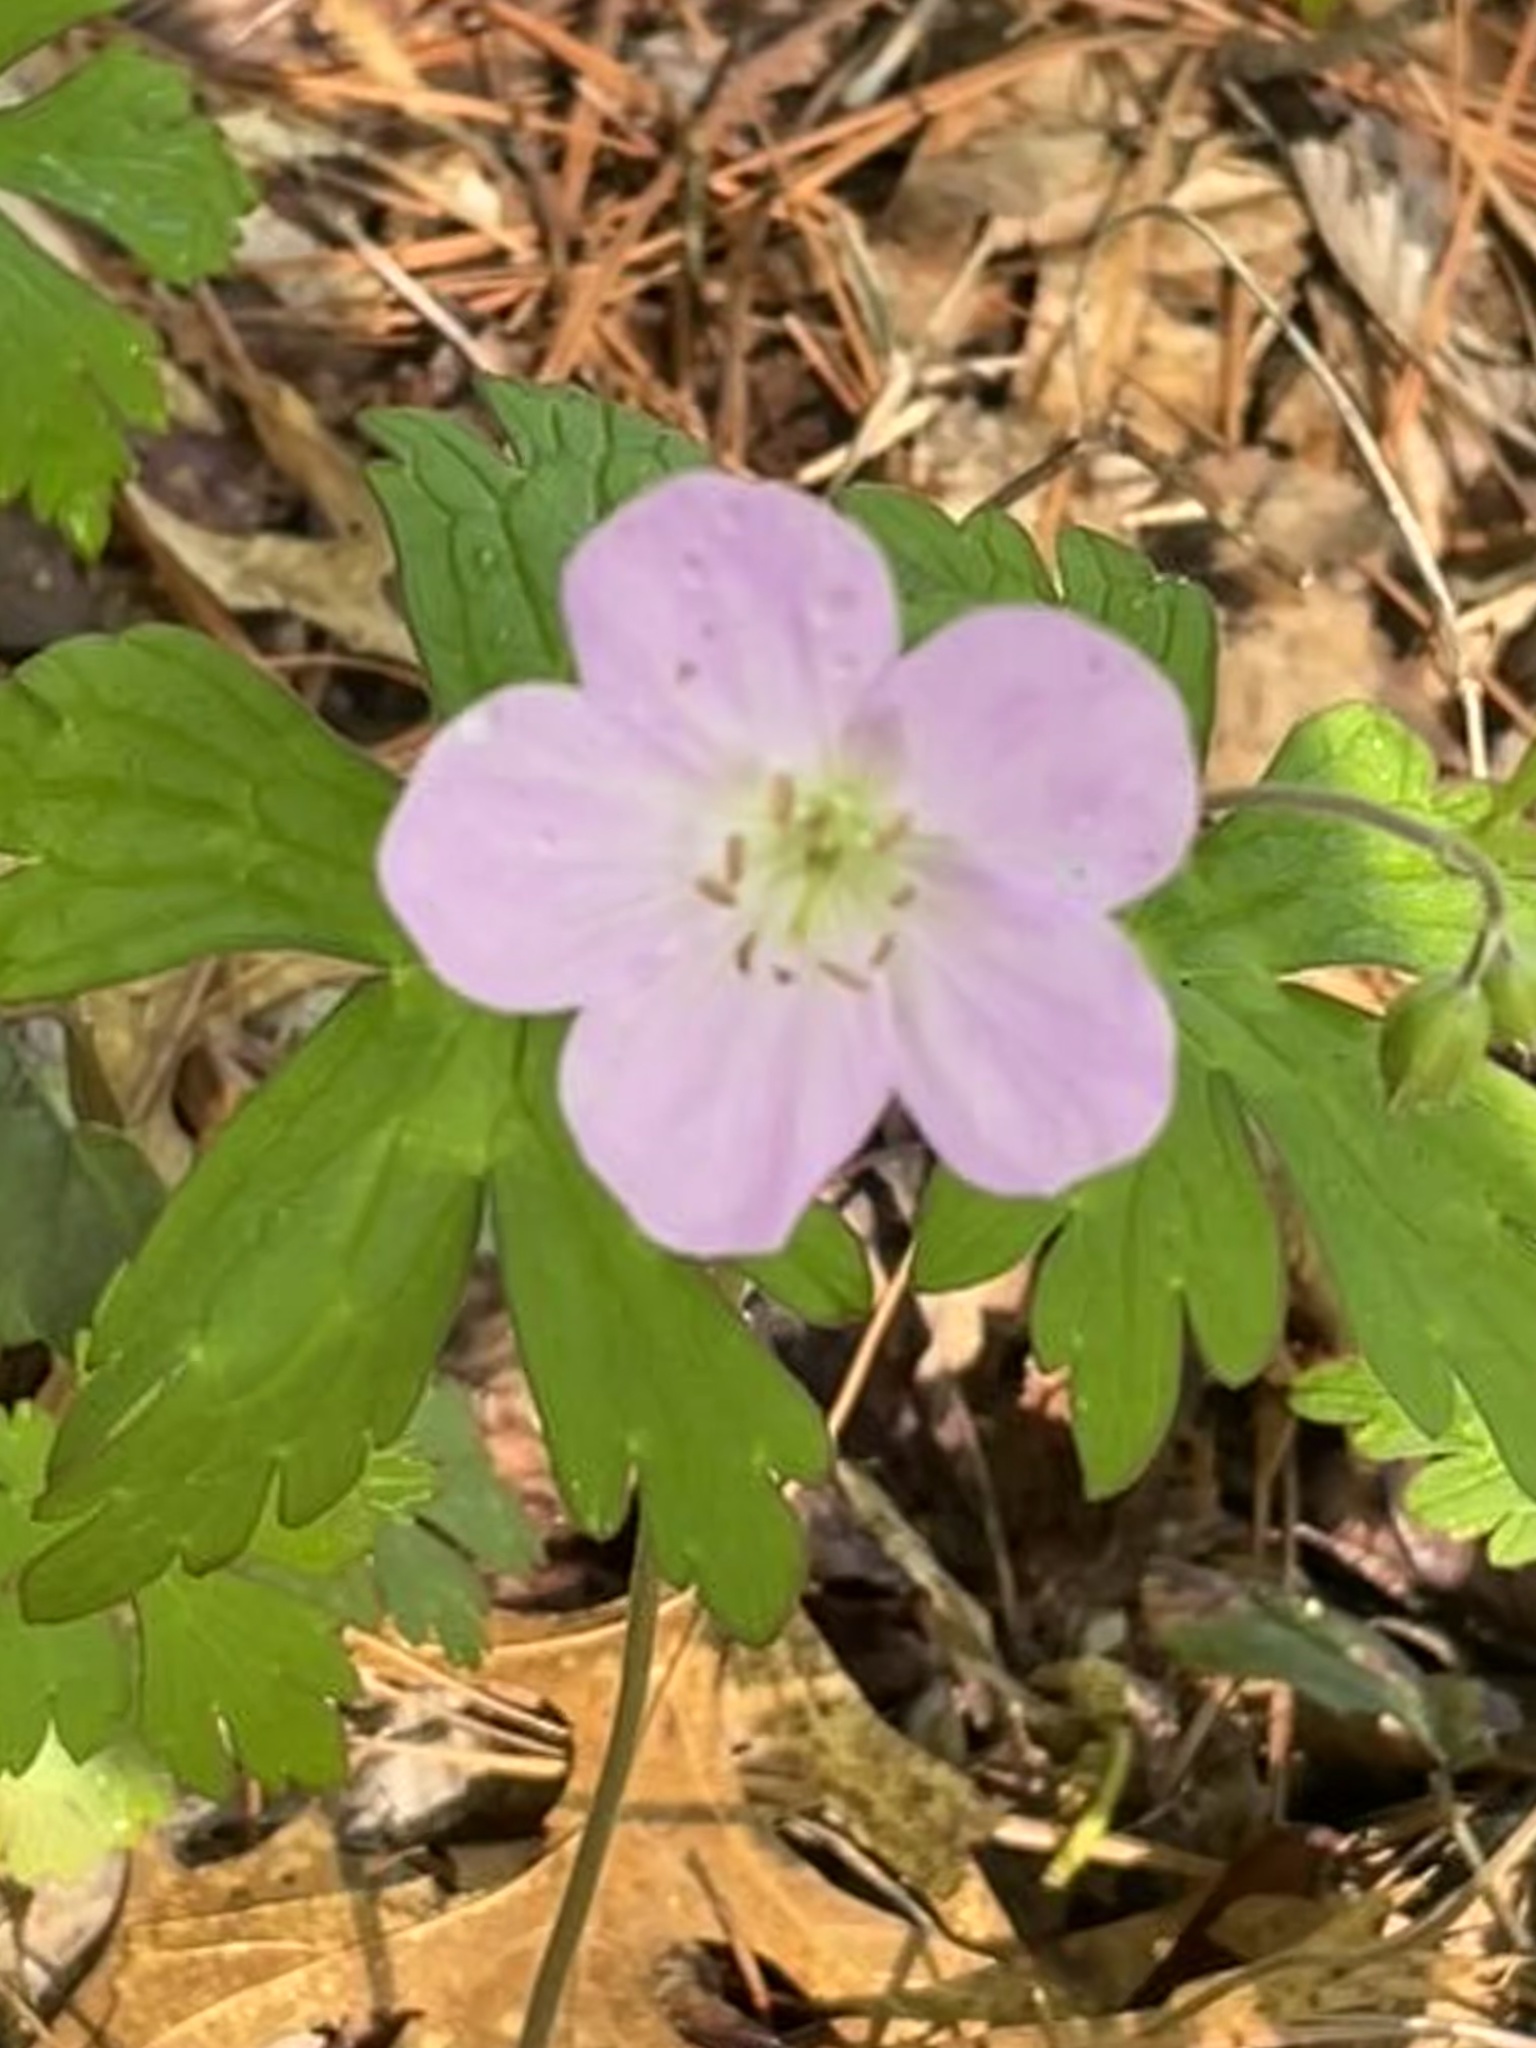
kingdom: Plantae
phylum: Tracheophyta
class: Magnoliopsida
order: Geraniales
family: Geraniaceae
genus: Geranium
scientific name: Geranium maculatum
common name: Spotted geranium
